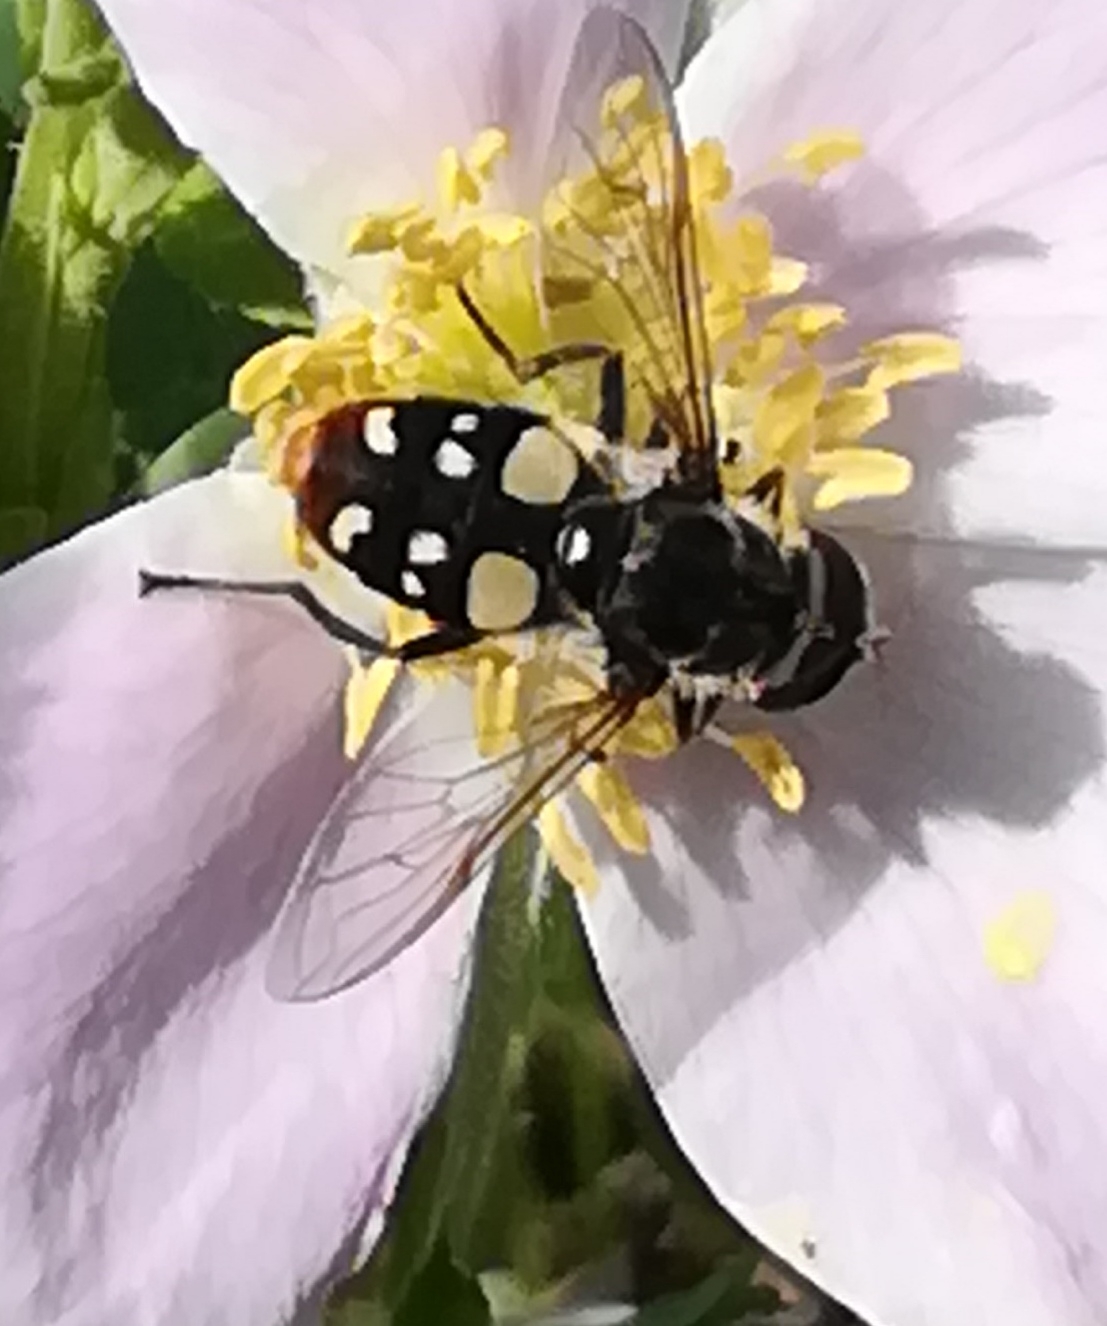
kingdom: Animalia
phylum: Arthropoda
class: Insecta
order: Diptera
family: Syrphidae
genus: Sericomyia
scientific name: Sericomyia lata
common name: White-spotted pond fly
